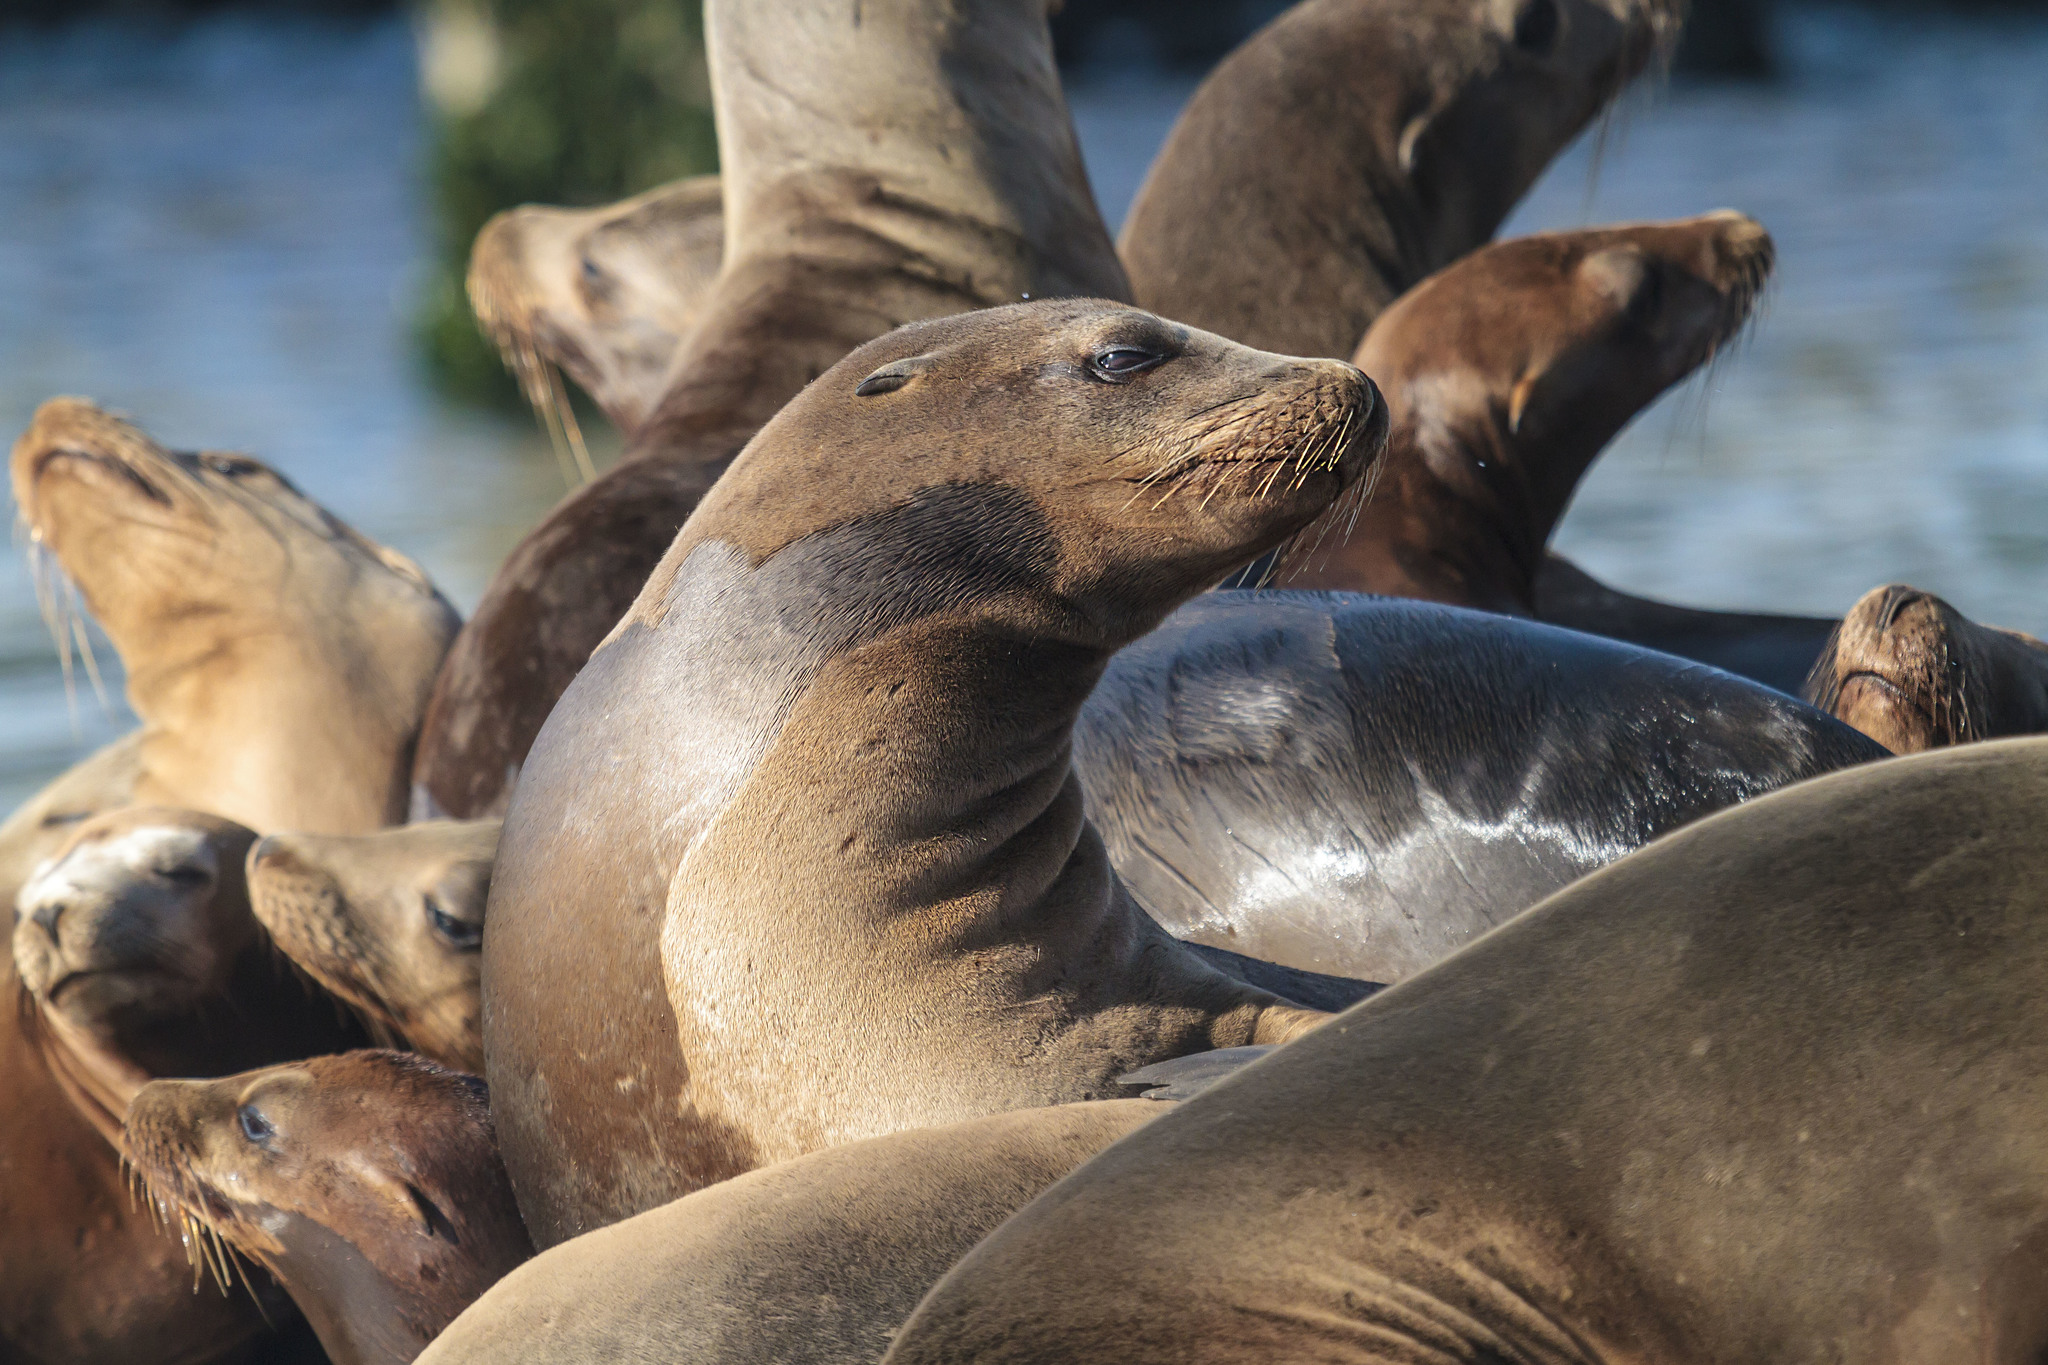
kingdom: Animalia
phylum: Chordata
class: Mammalia
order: Carnivora
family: Otariidae
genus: Zalophus
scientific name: Zalophus californianus
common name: California sea lion
